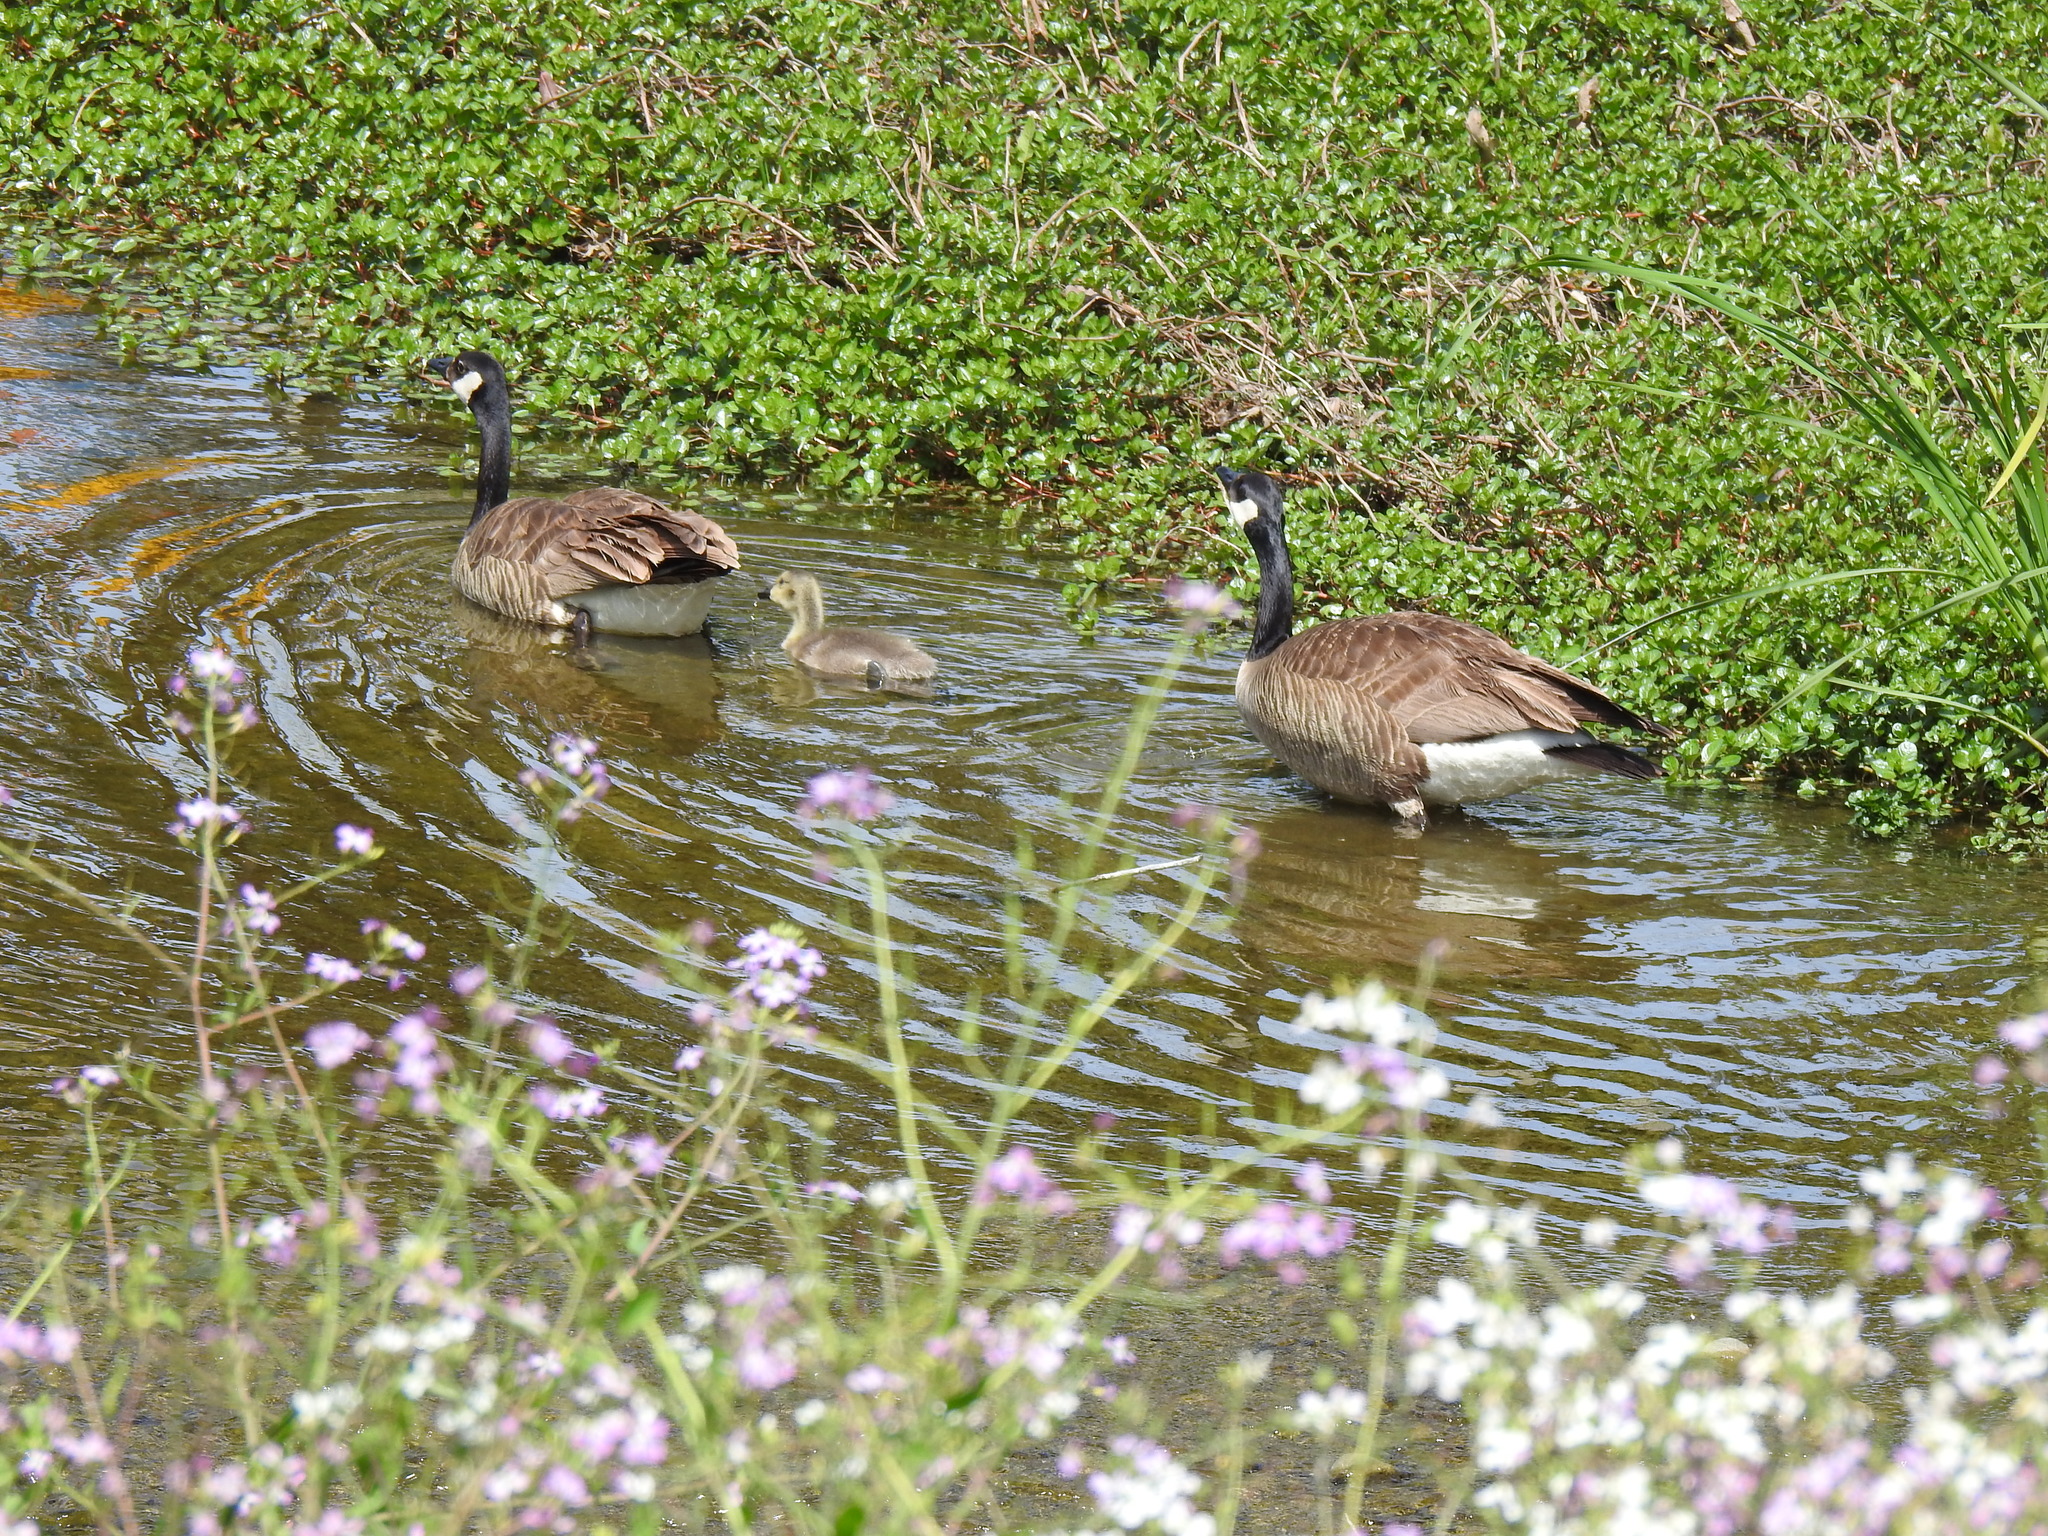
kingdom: Animalia
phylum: Chordata
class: Aves
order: Anseriformes
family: Anatidae
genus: Branta
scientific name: Branta canadensis
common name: Canada goose
